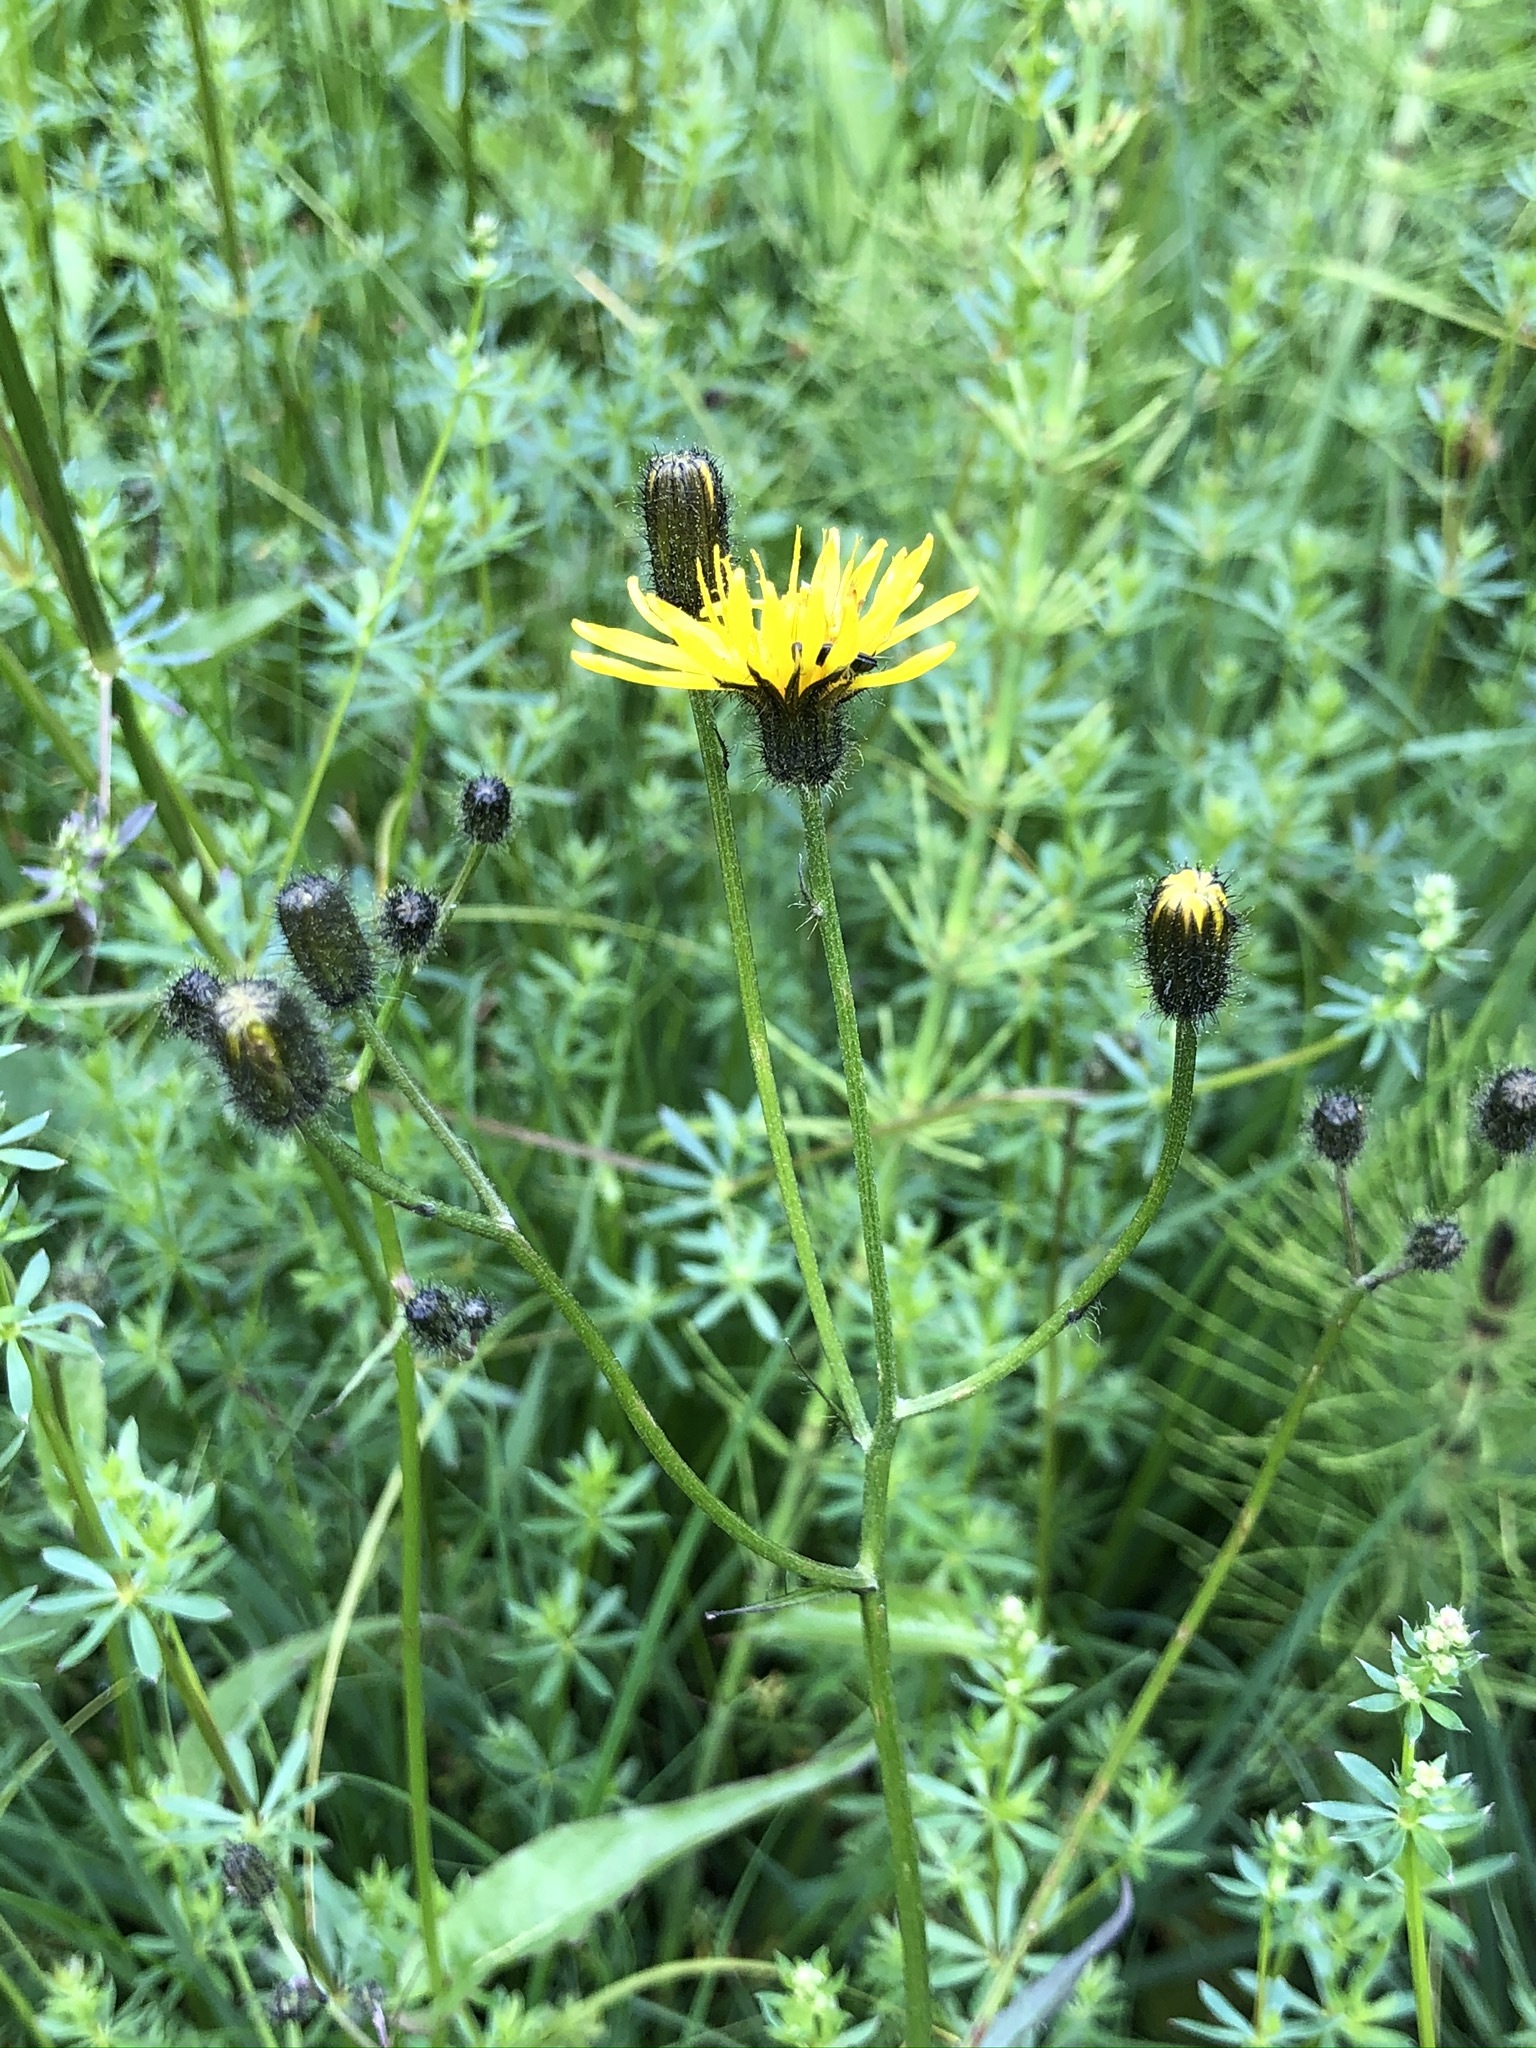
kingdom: Plantae
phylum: Tracheophyta
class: Magnoliopsida
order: Asterales
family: Asteraceae
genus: Crepis
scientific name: Crepis paludosa
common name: Marsh hawk's-beard
